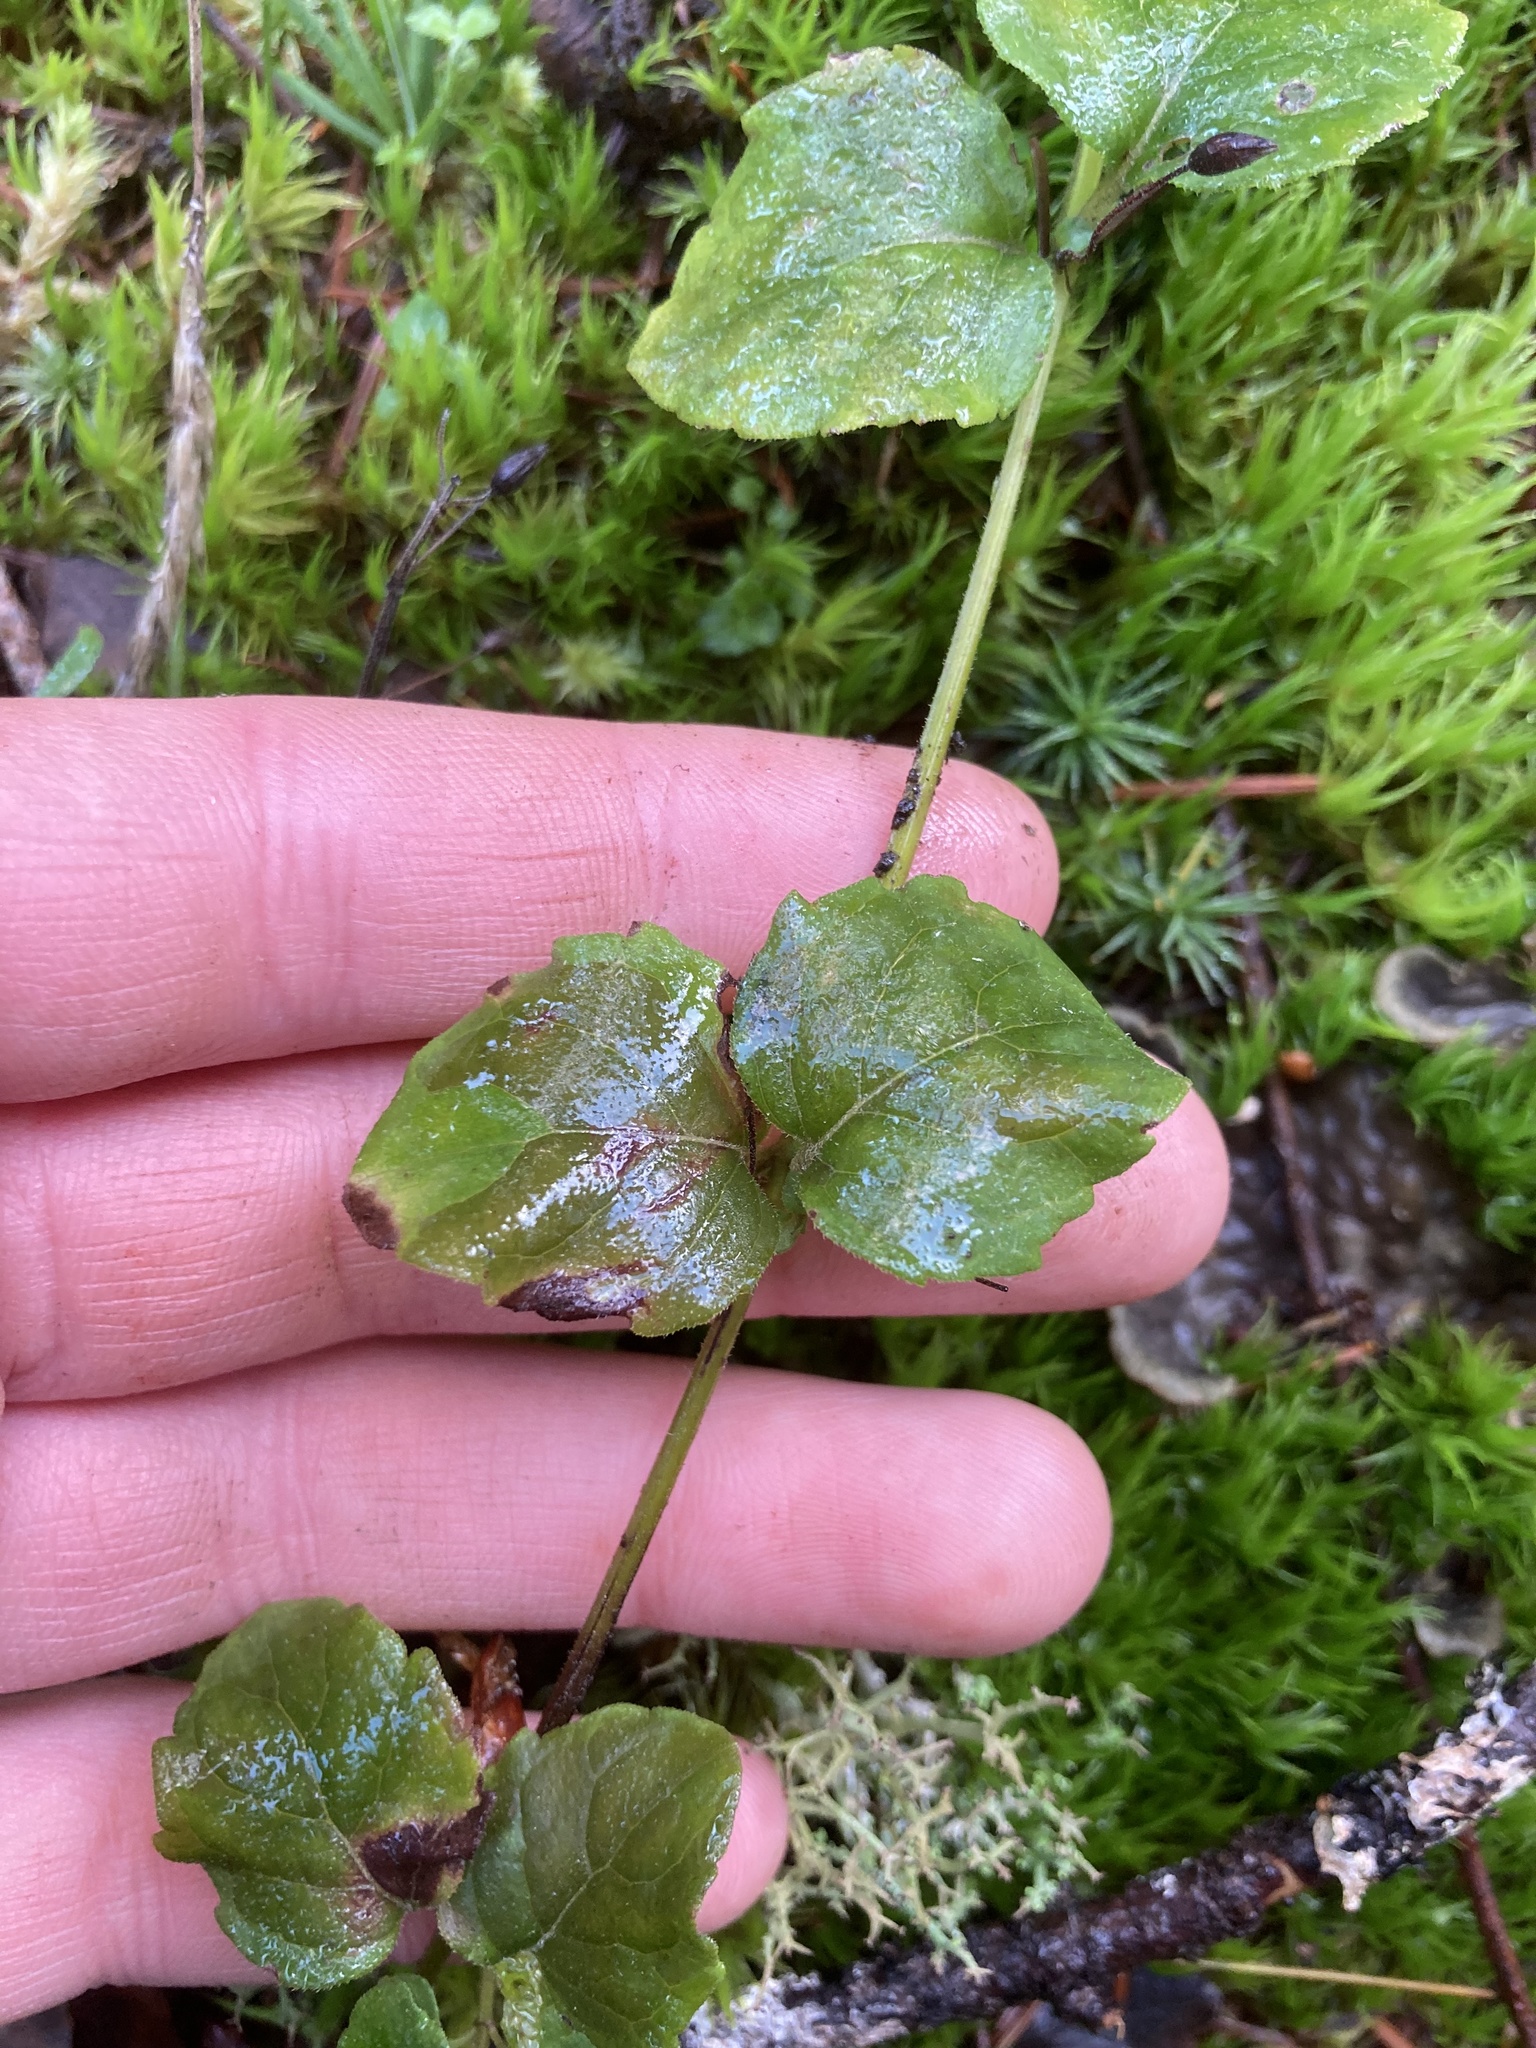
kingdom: Plantae
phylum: Tracheophyta
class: Magnoliopsida
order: Lamiales
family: Lamiaceae
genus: Micromeria
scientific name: Micromeria douglasii
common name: Yerba buena
